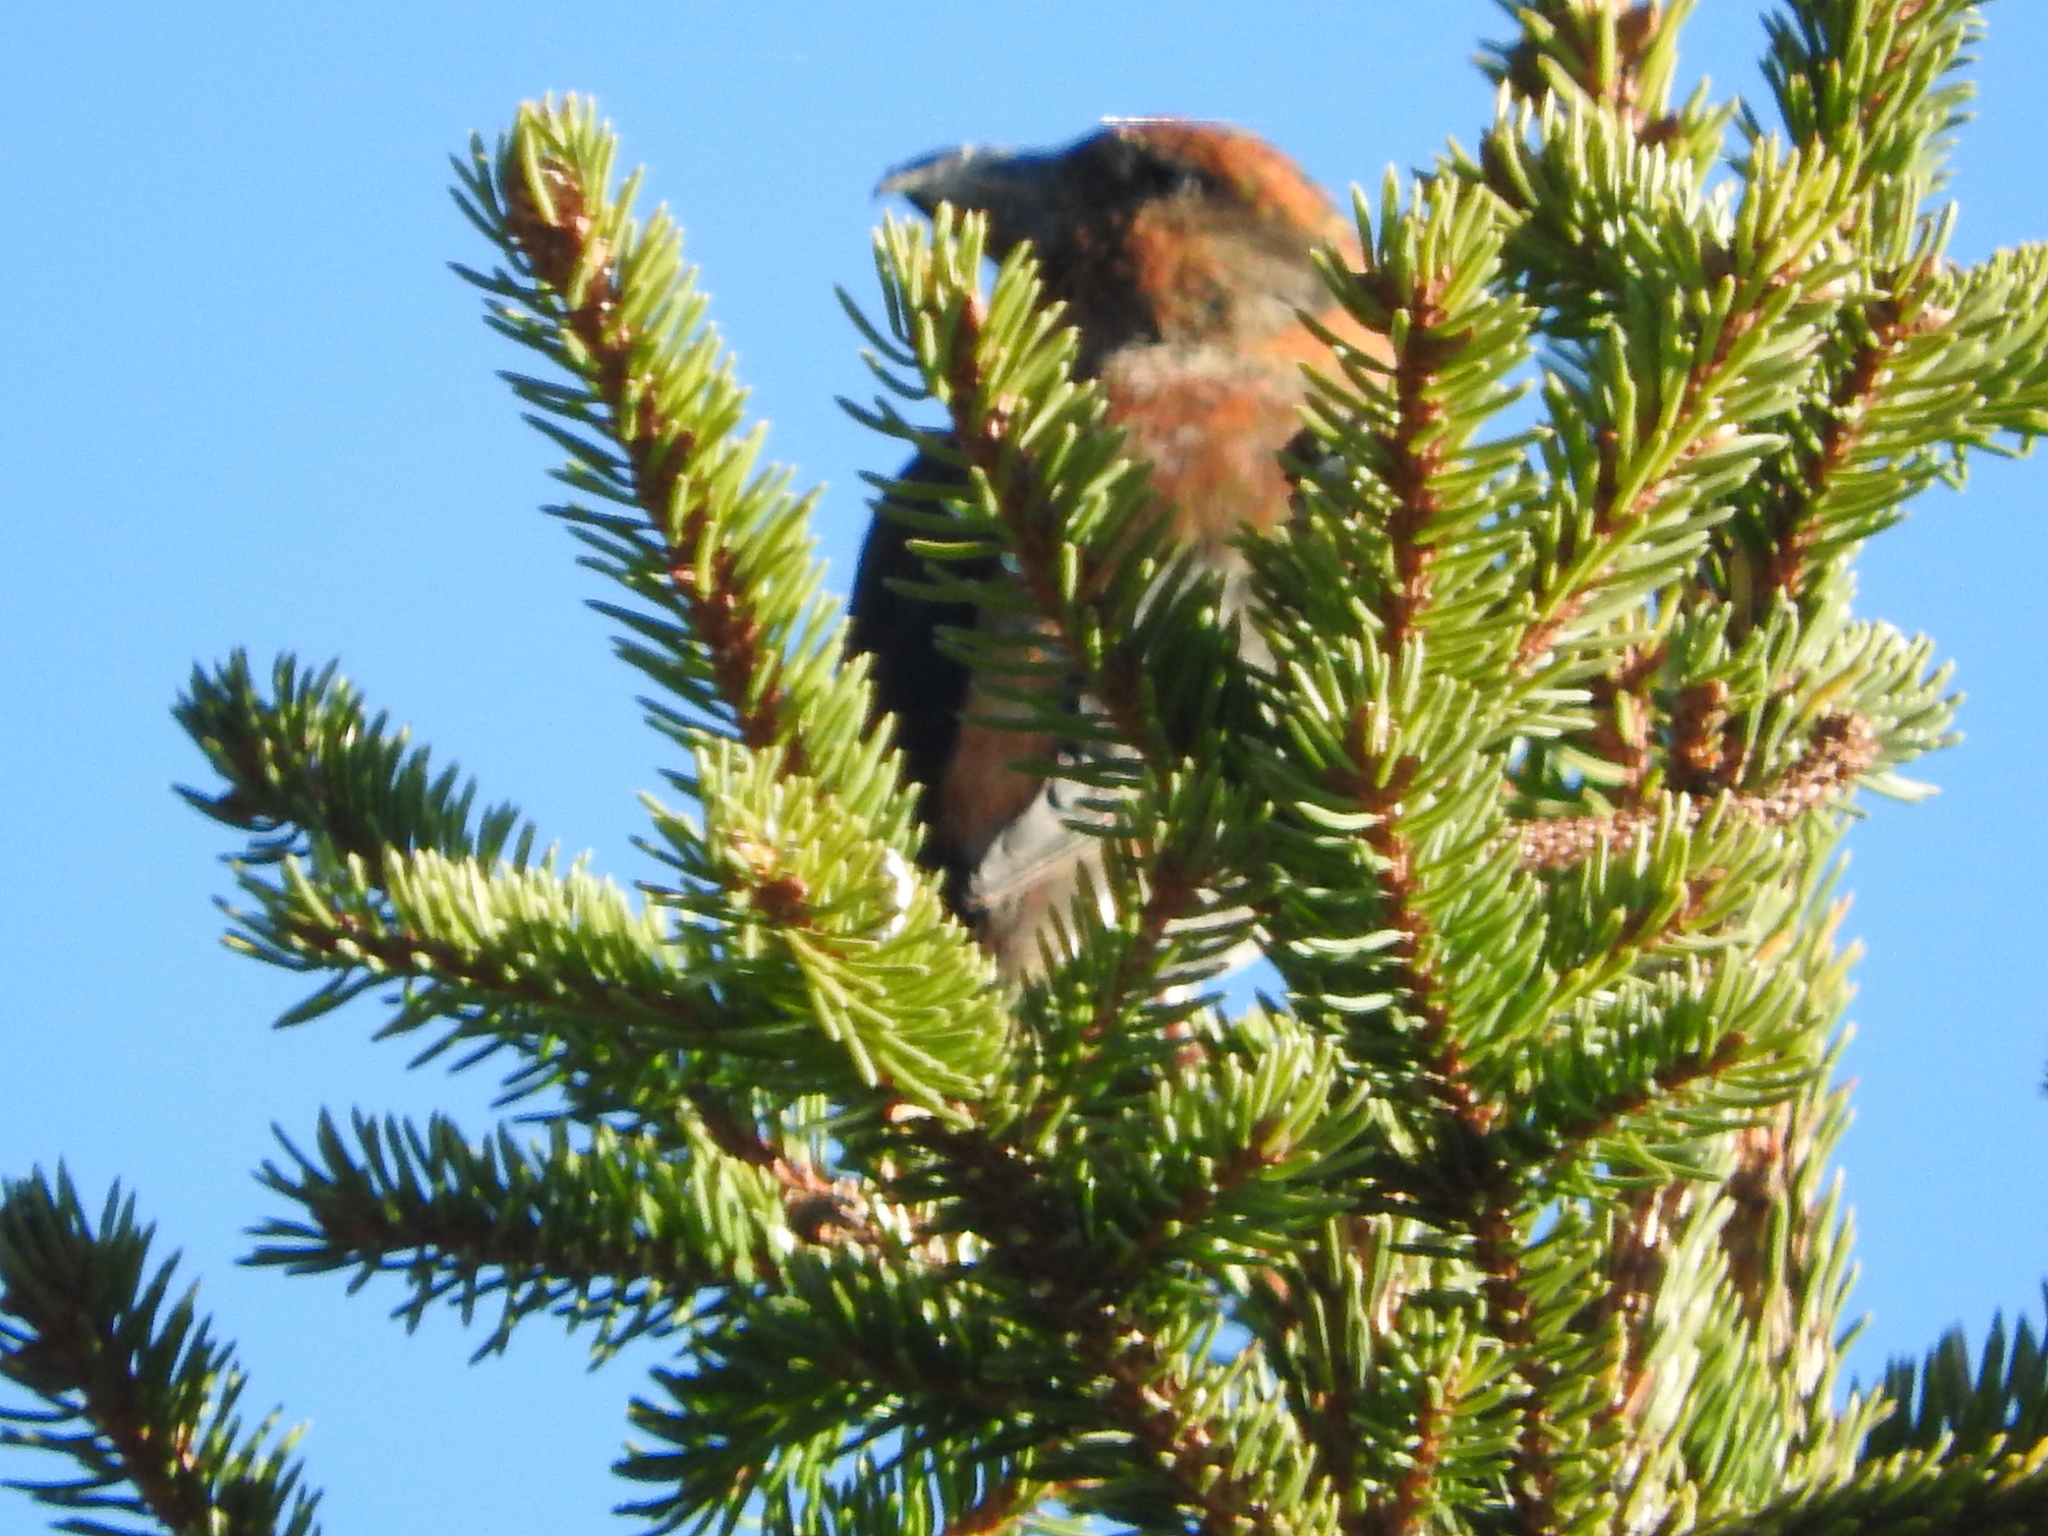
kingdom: Animalia
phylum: Chordata
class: Aves
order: Passeriformes
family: Fringillidae
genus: Loxia
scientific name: Loxia curvirostra
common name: Red crossbill
